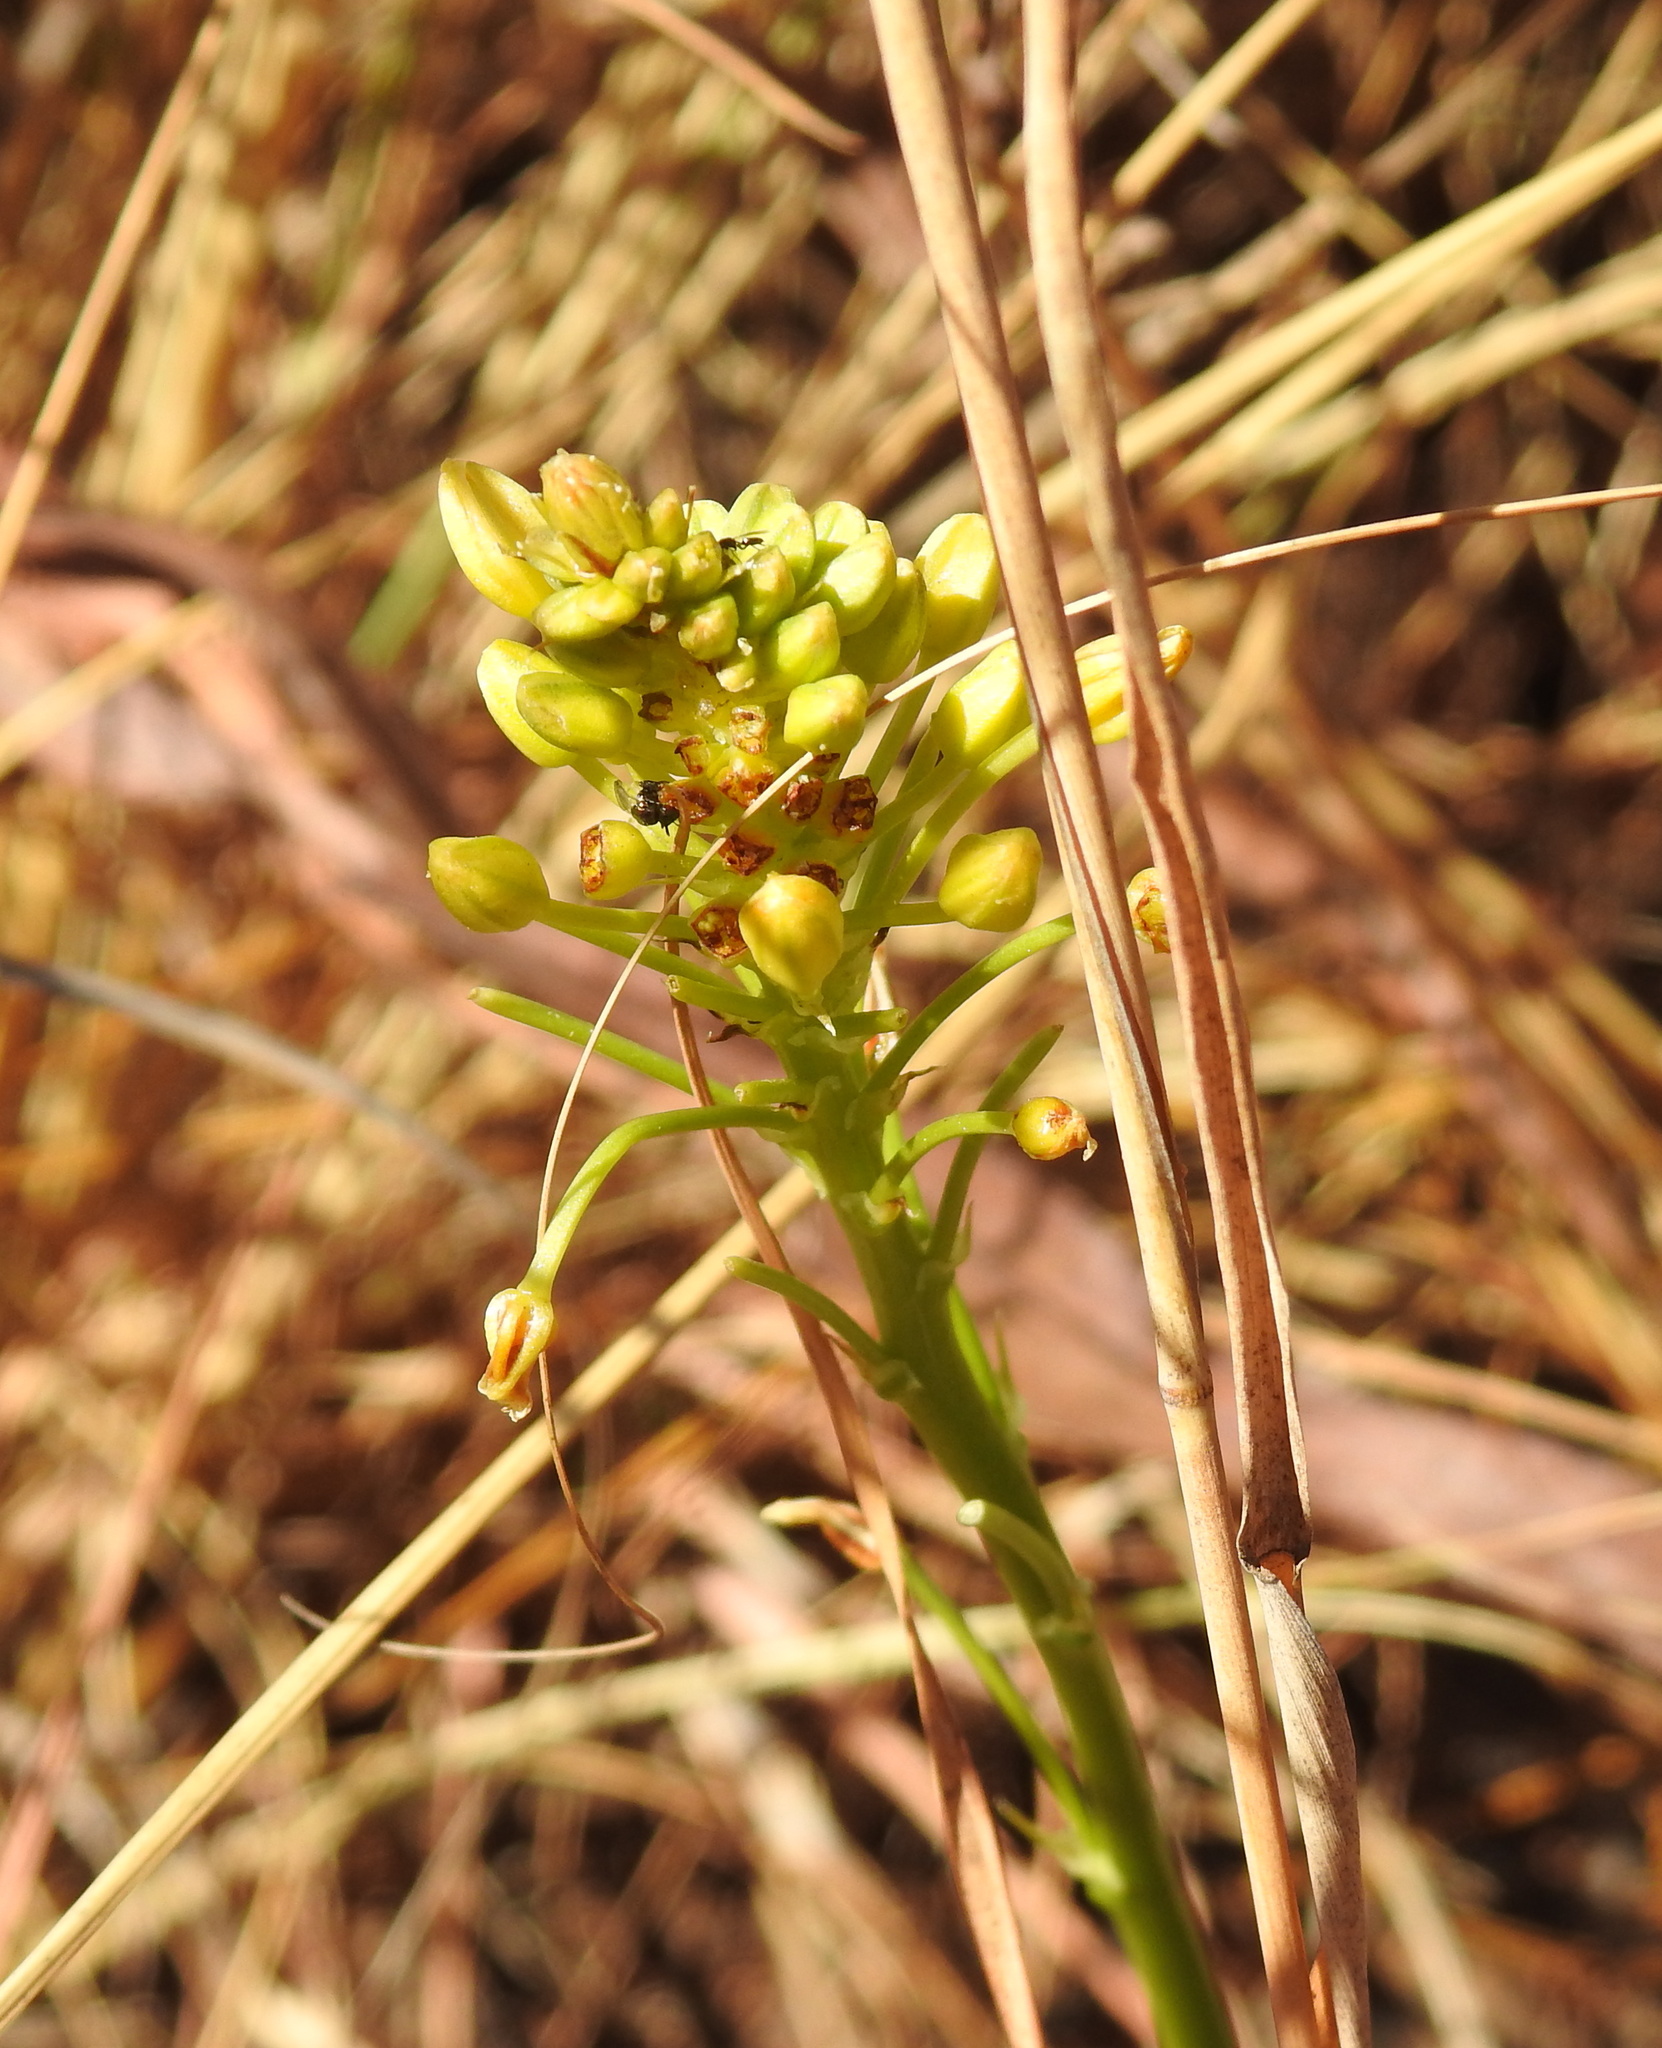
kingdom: Plantae
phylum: Tracheophyta
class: Liliopsida
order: Asparagales
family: Asphodelaceae
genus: Bulbine
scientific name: Bulbine capitata
